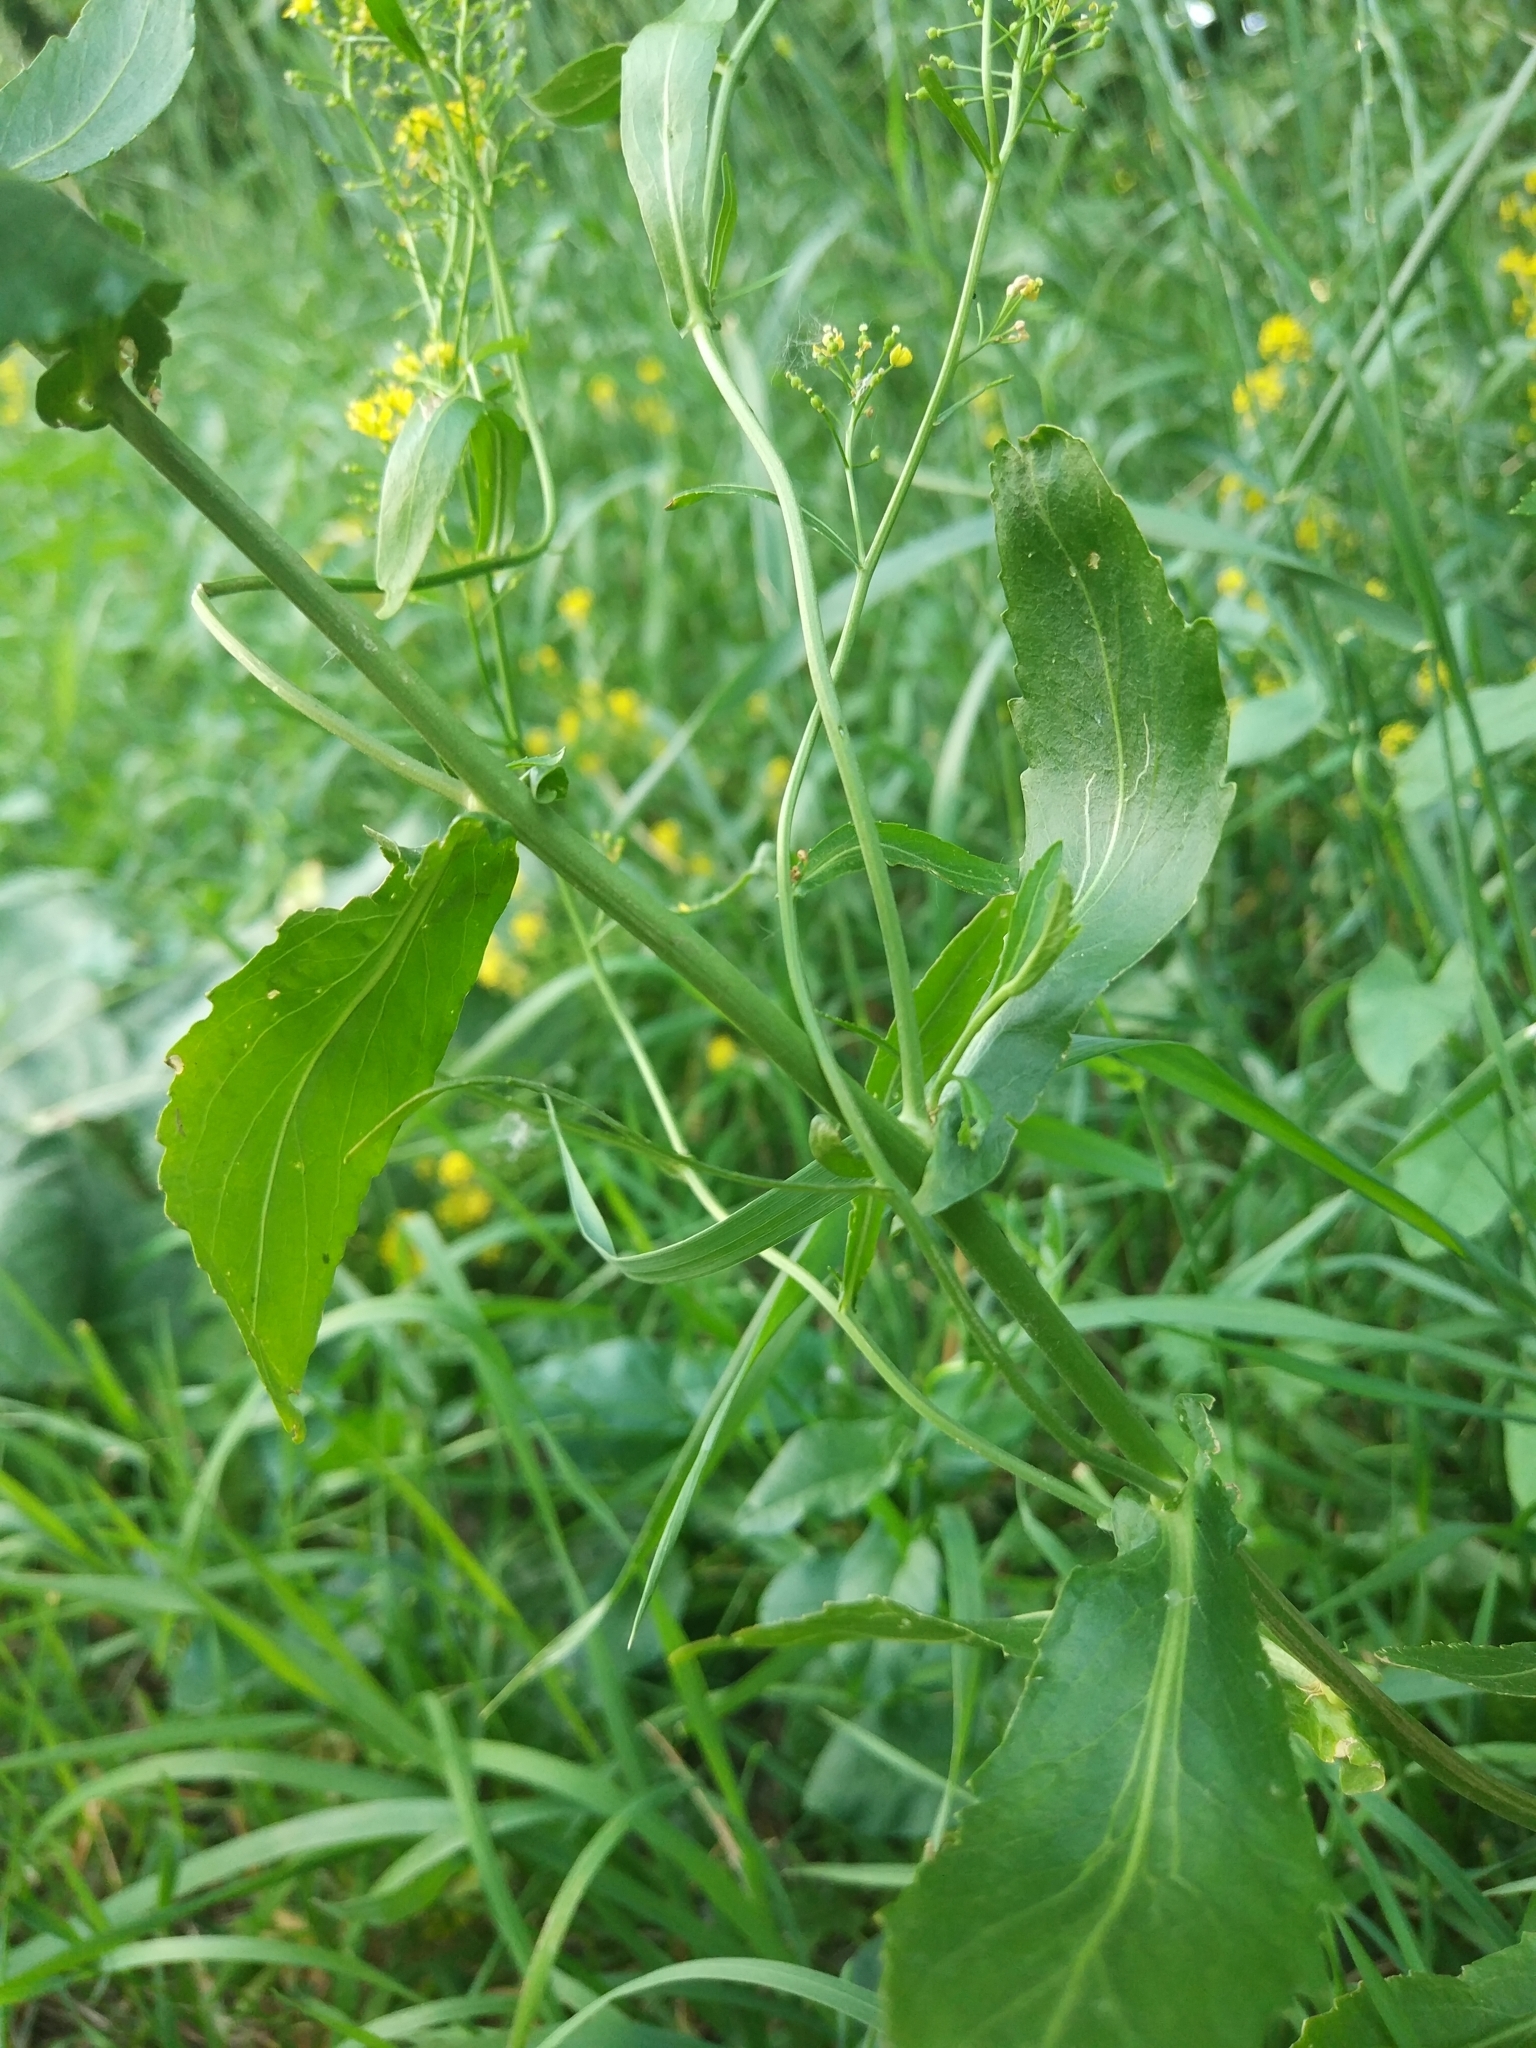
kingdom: Plantae
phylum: Tracheophyta
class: Magnoliopsida
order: Brassicales
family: Brassicaceae
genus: Rorippa
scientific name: Rorippa austriaca
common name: Austrian yellow-cress
